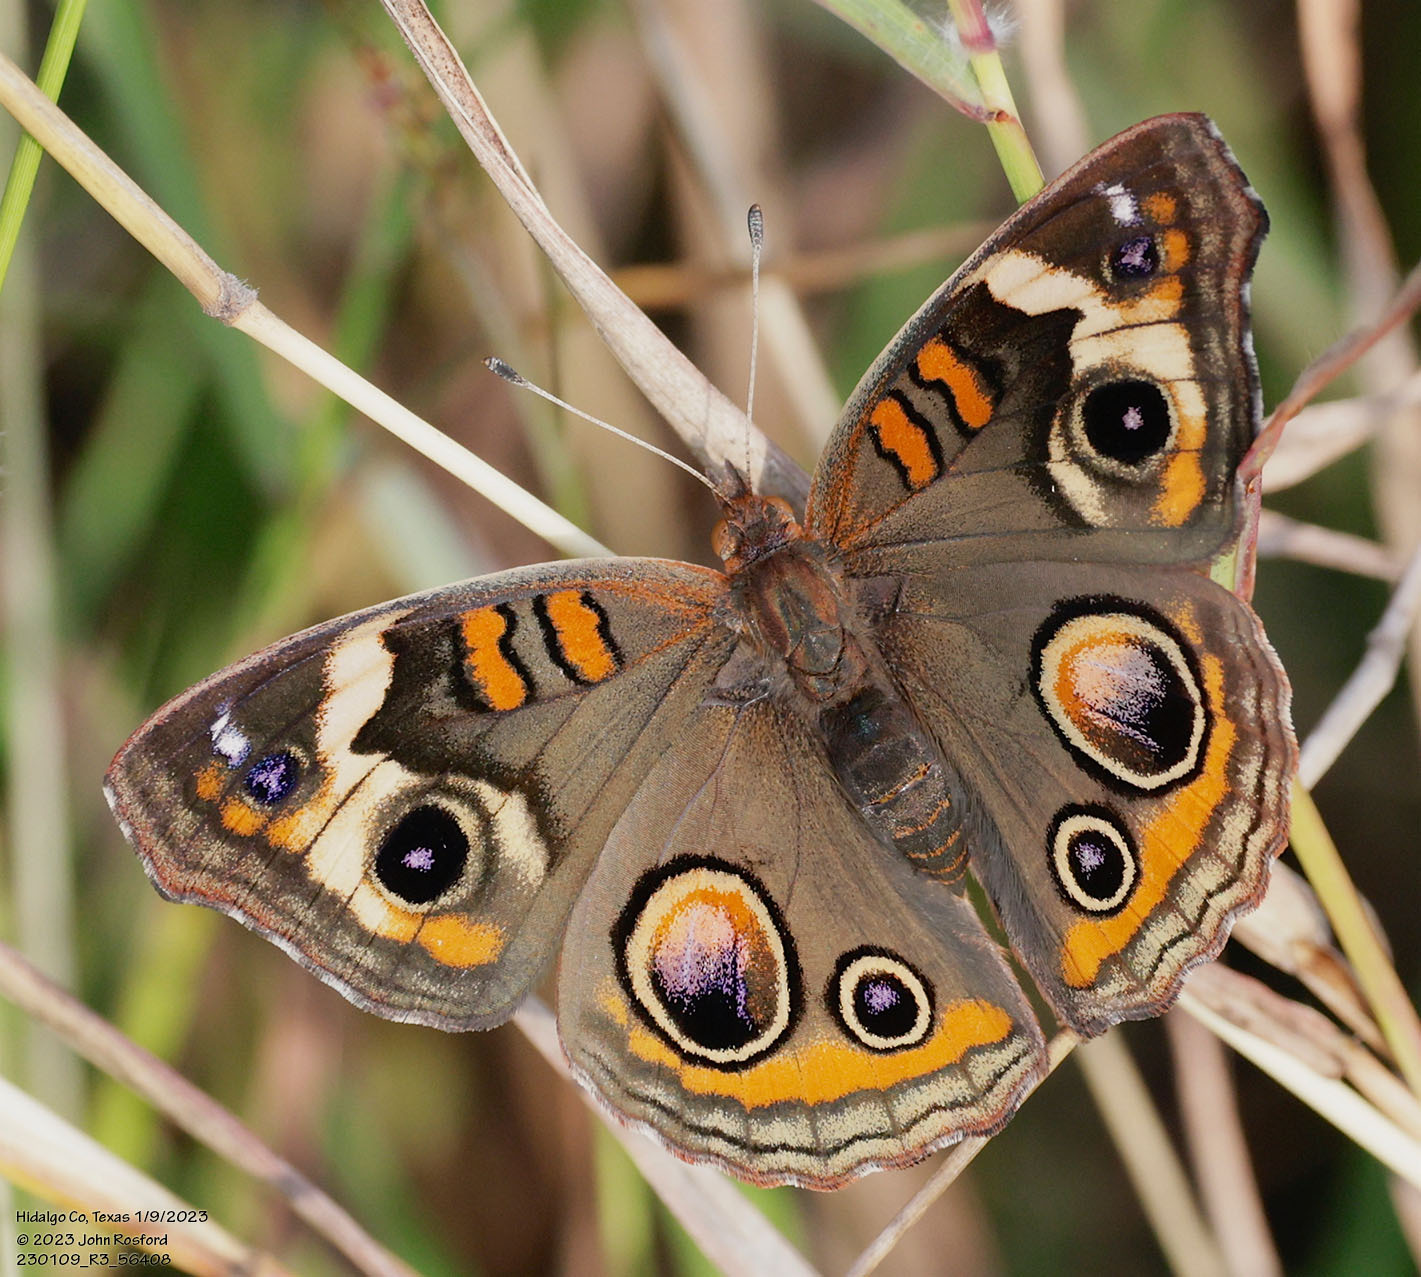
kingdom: Animalia
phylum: Arthropoda
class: Insecta
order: Lepidoptera
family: Nymphalidae
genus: Junonia
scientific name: Junonia coenia
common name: Common buckeye
